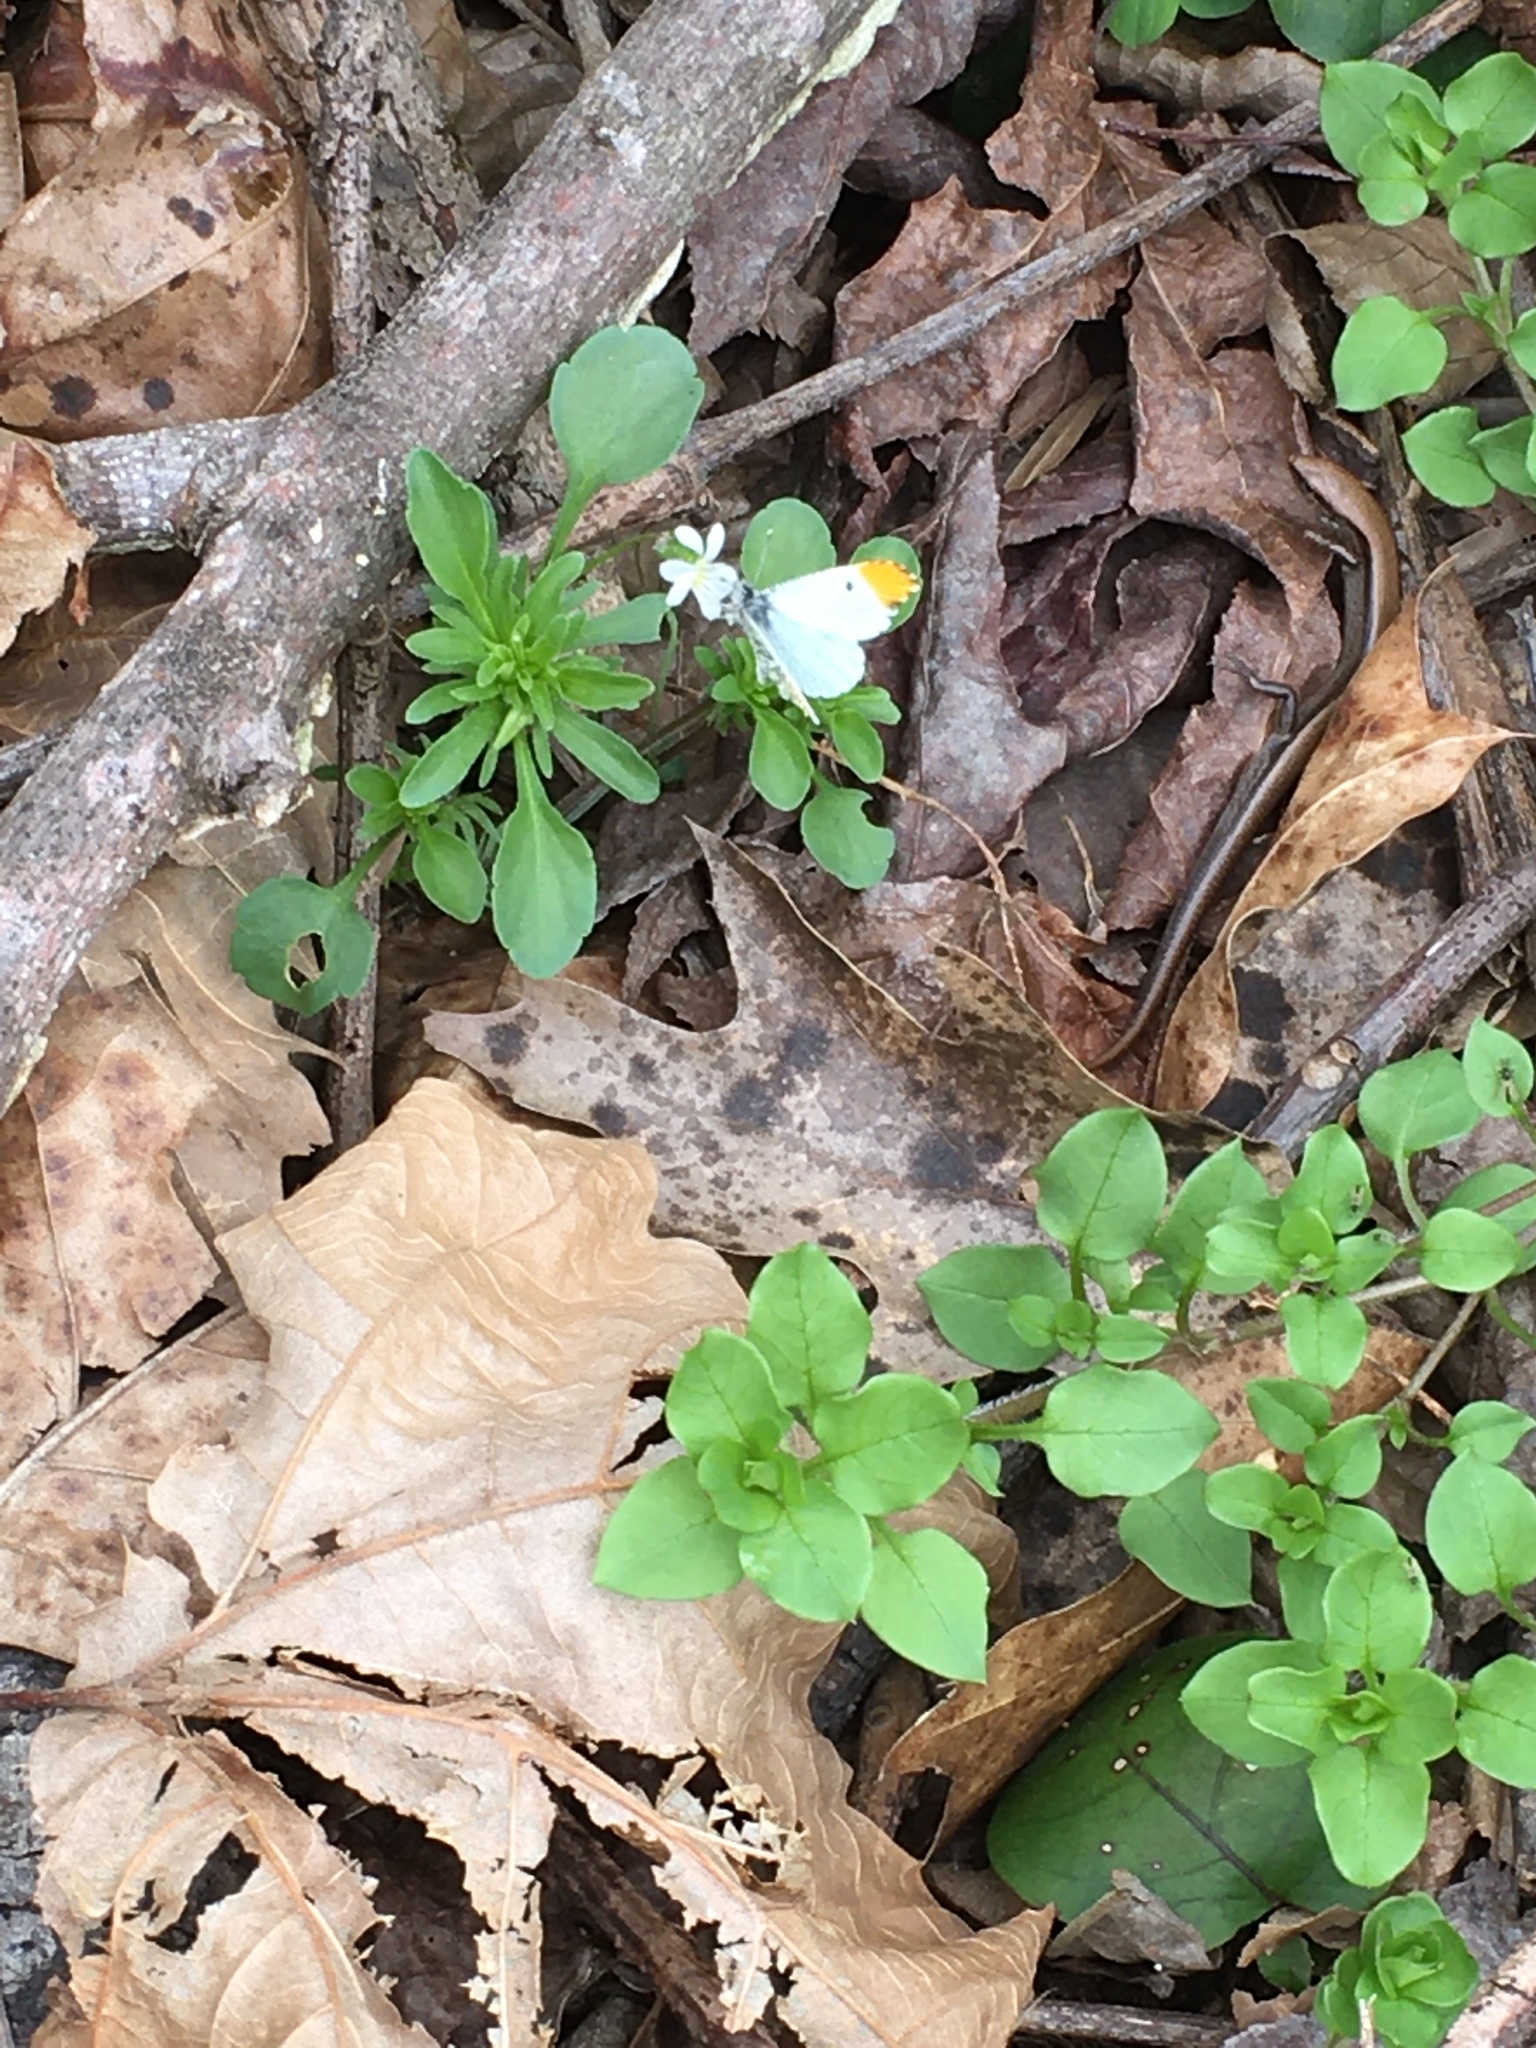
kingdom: Animalia
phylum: Arthropoda
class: Insecta
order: Lepidoptera
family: Pieridae
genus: Anthocharis
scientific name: Anthocharis midea
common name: Falcate orangetip
